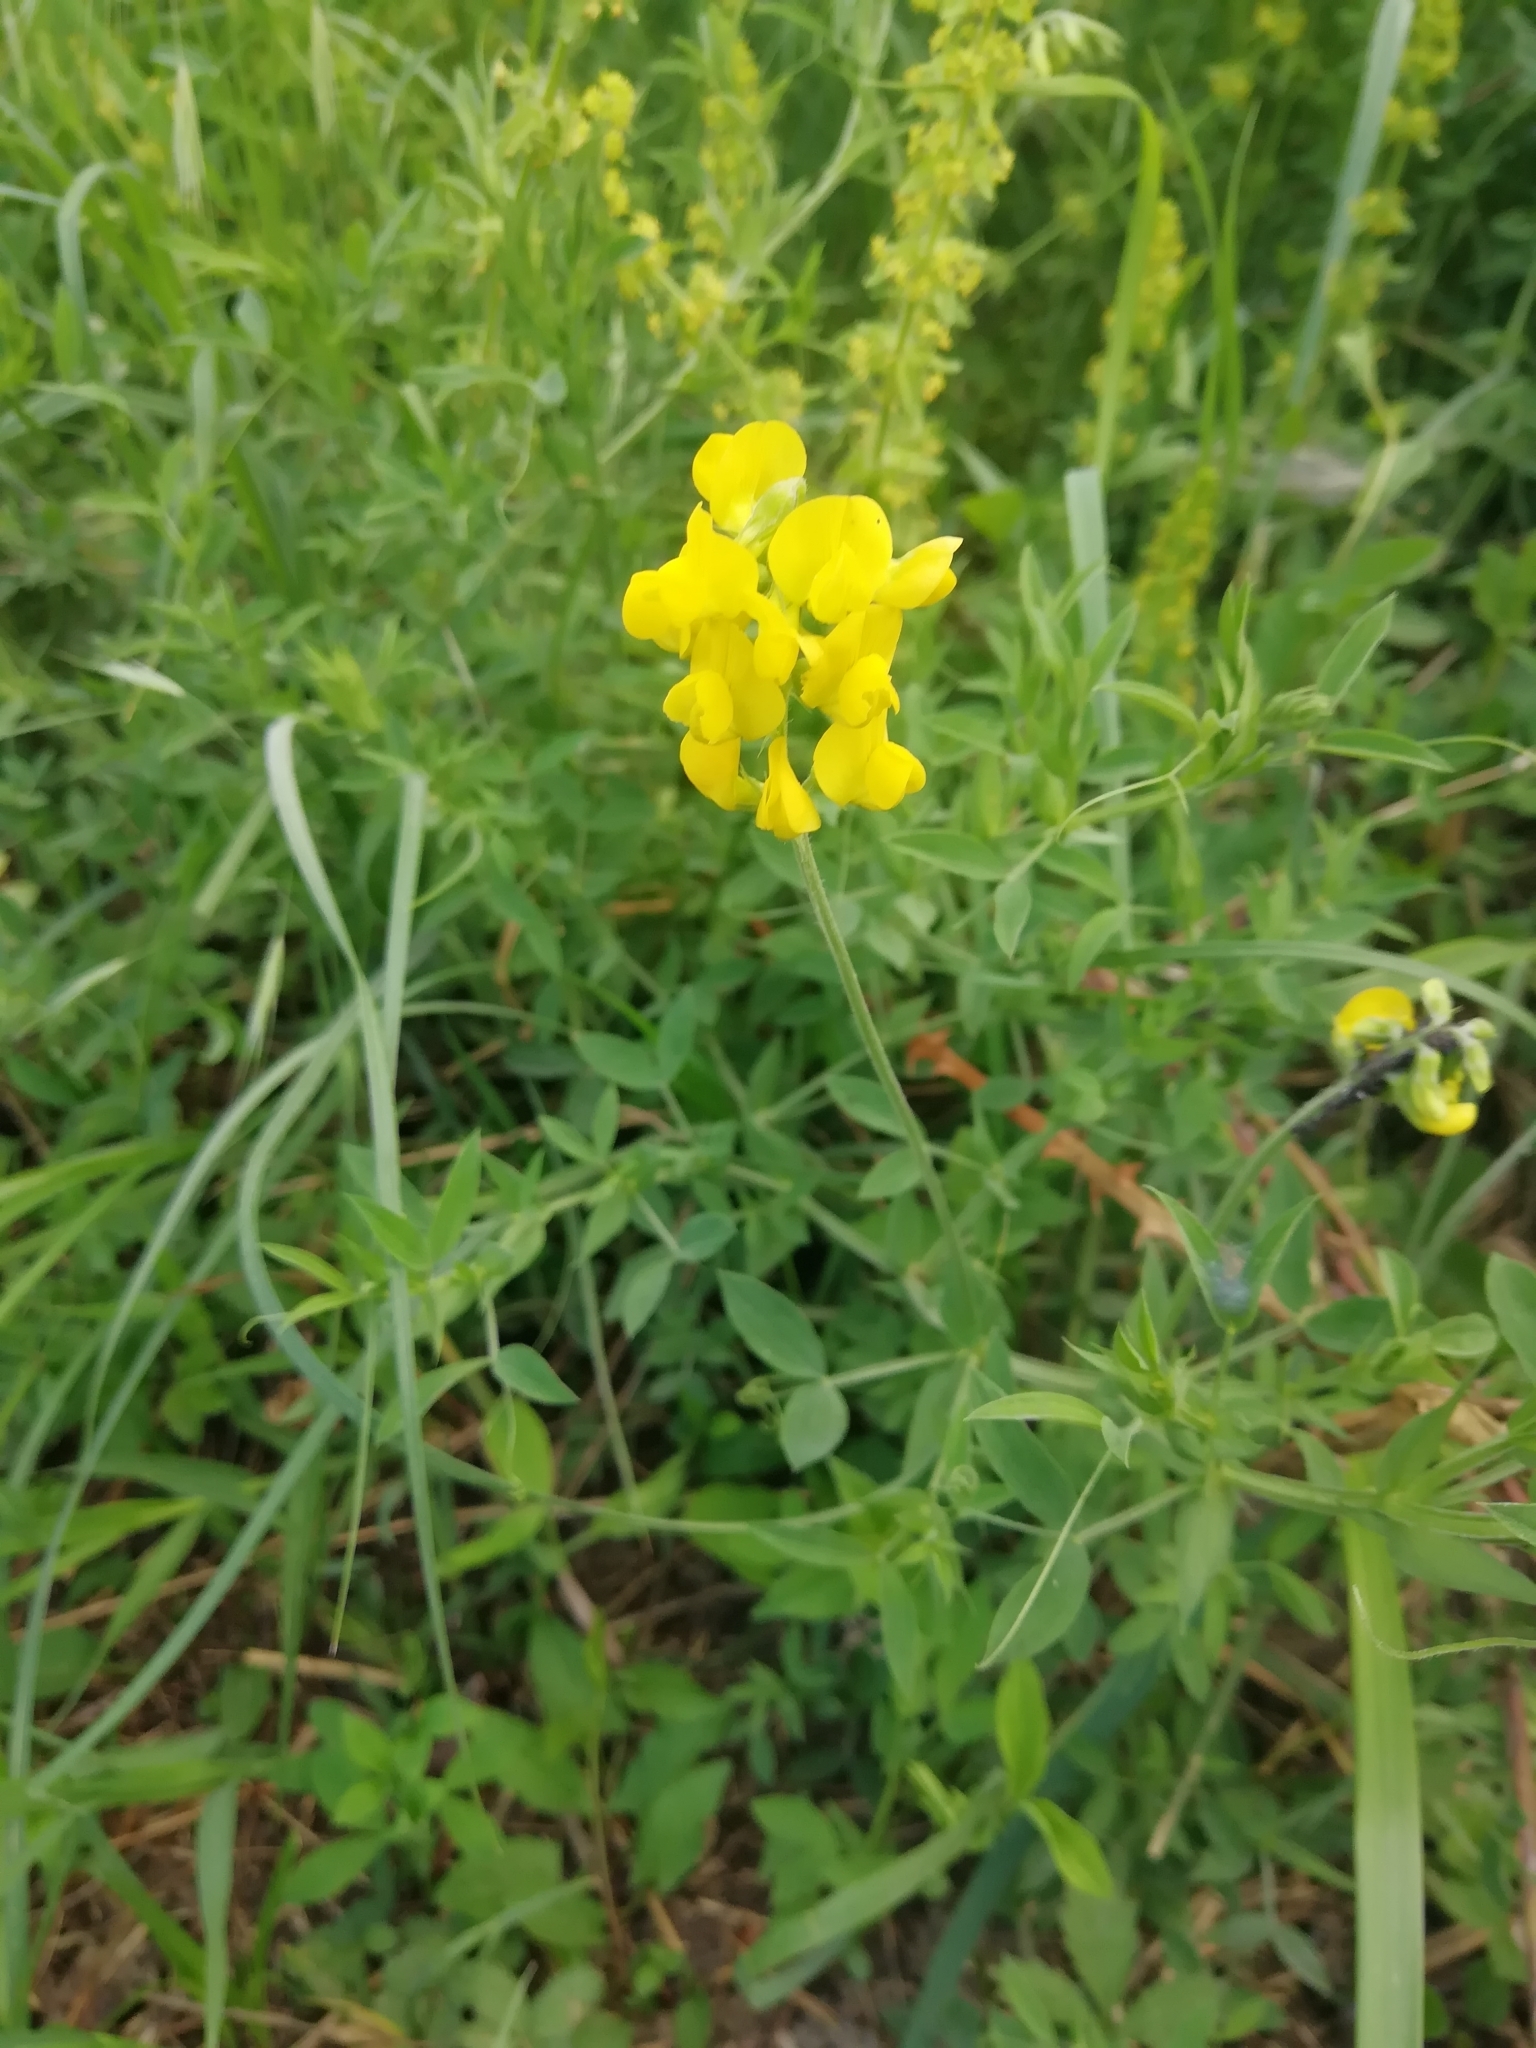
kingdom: Plantae
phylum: Tracheophyta
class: Magnoliopsida
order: Fabales
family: Fabaceae
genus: Lathyrus
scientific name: Lathyrus pratensis
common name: Meadow vetchling
